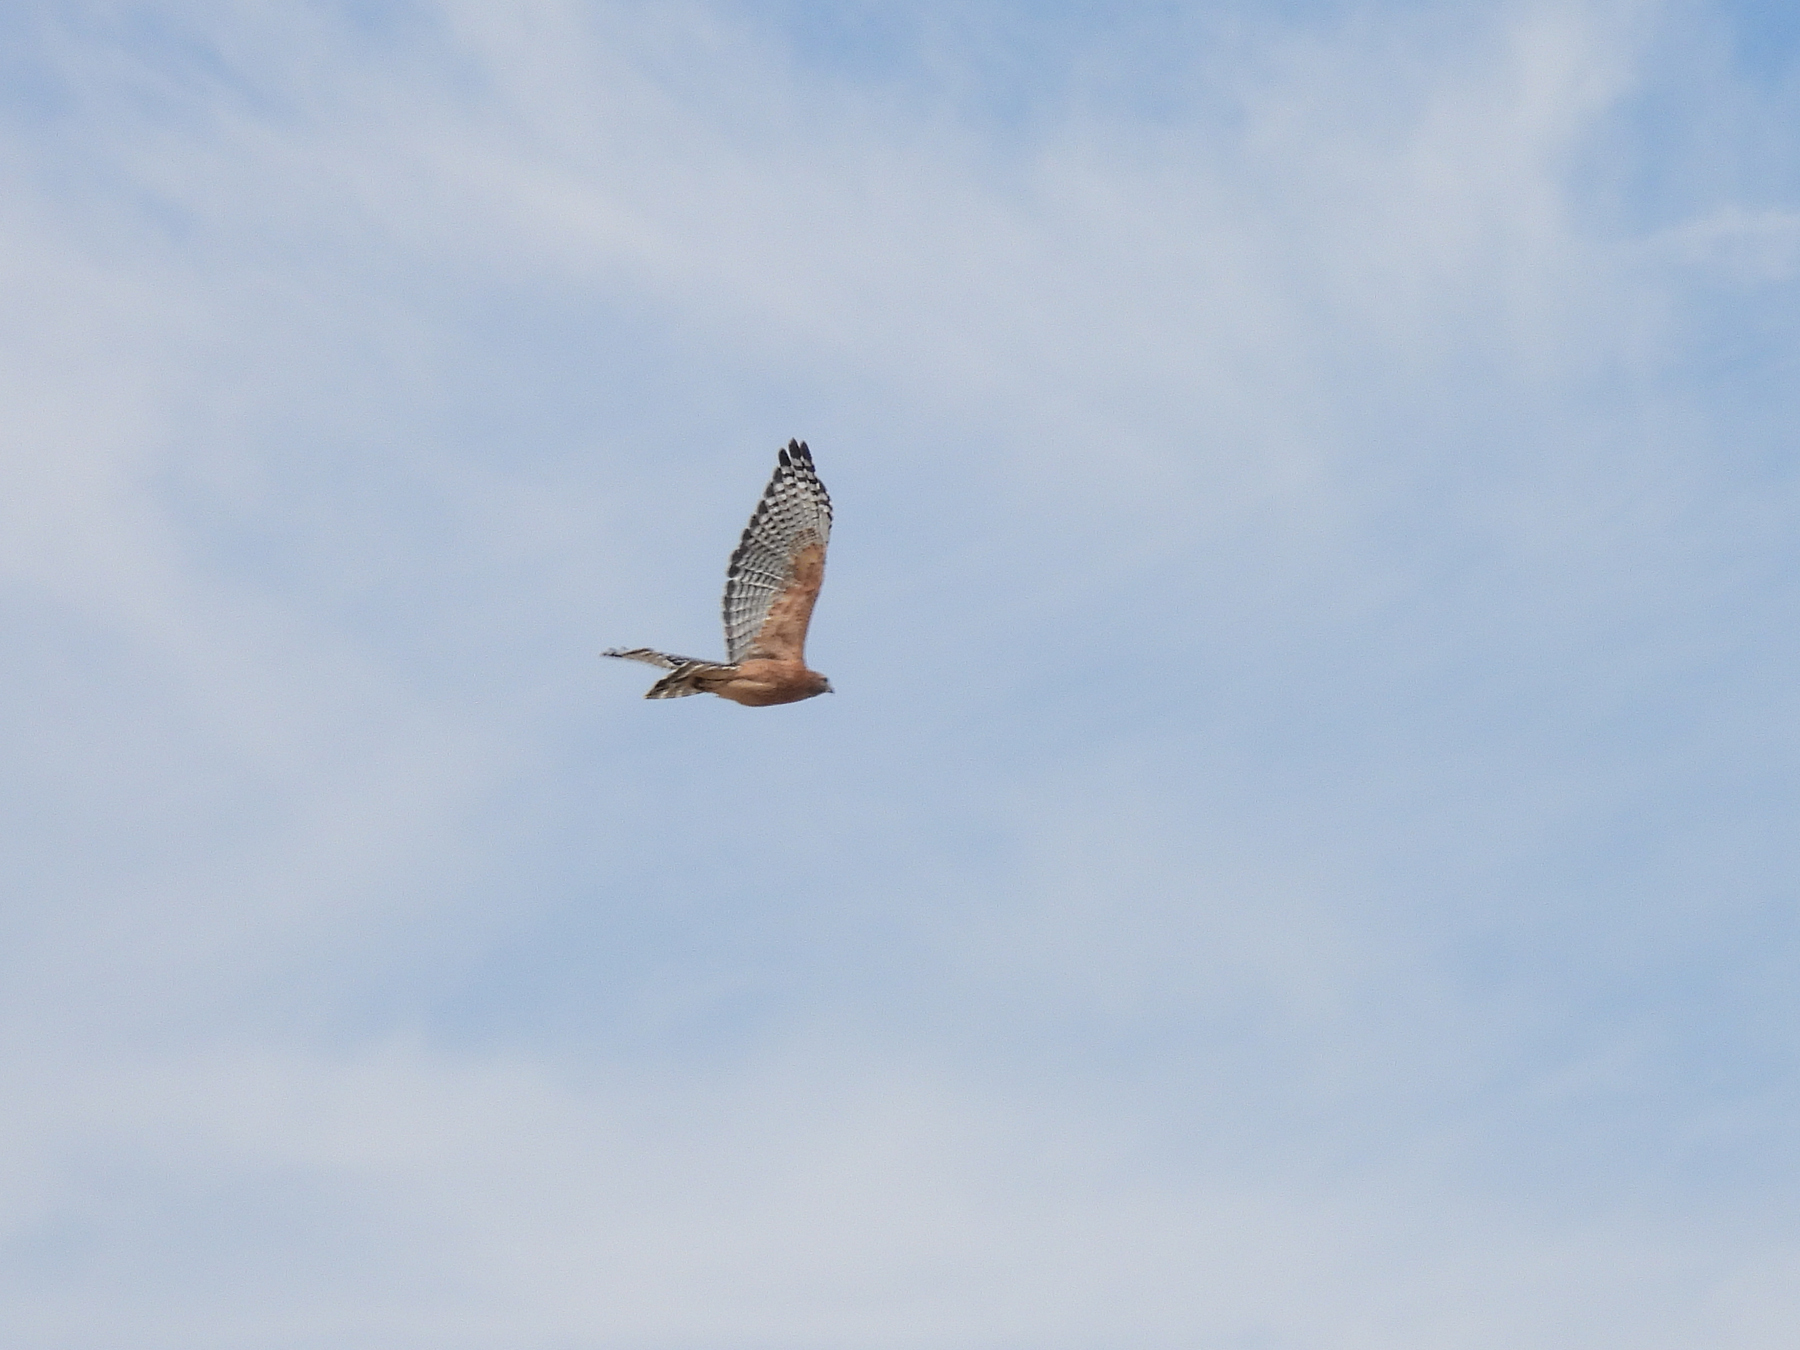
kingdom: Animalia
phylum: Chordata
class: Aves
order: Accipitriformes
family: Accipitridae
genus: Buteo
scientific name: Buteo lineatus
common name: Red-shouldered hawk
